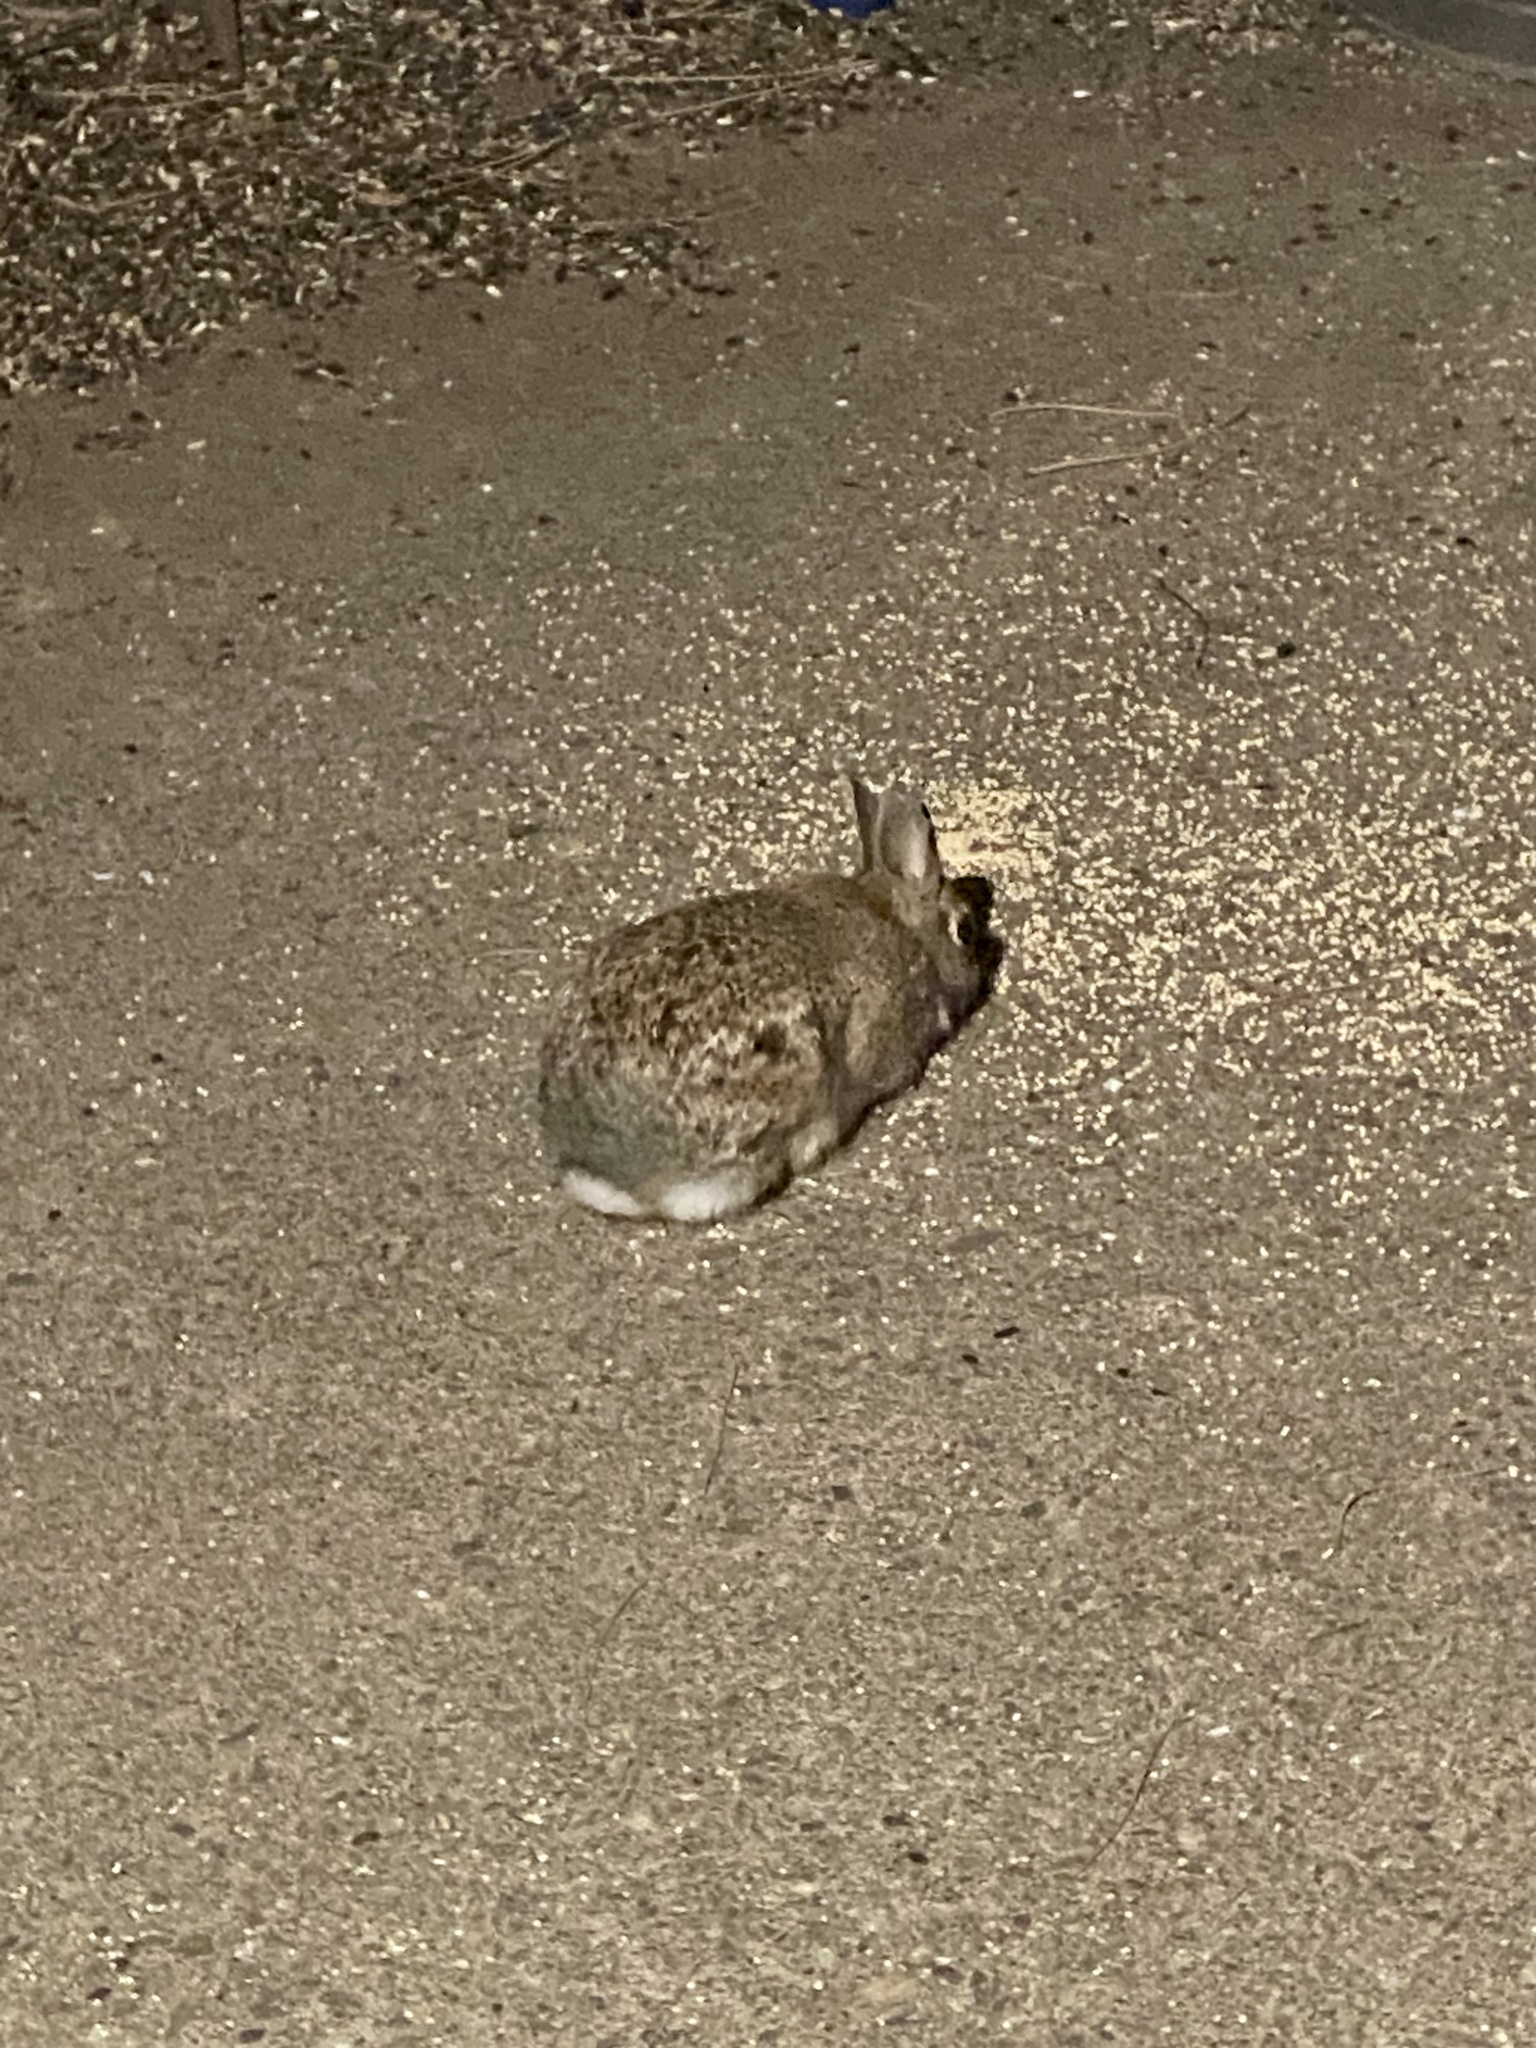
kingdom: Animalia
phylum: Chordata
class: Mammalia
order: Lagomorpha
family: Leporidae
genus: Sylvilagus
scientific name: Sylvilagus floridanus
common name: Eastern cottontail
